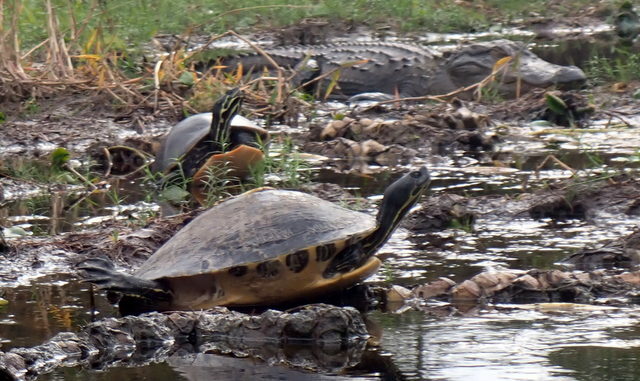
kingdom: Animalia
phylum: Chordata
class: Testudines
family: Emydidae
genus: Pseudemys
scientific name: Pseudemys concinna
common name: Eastern river cooter
